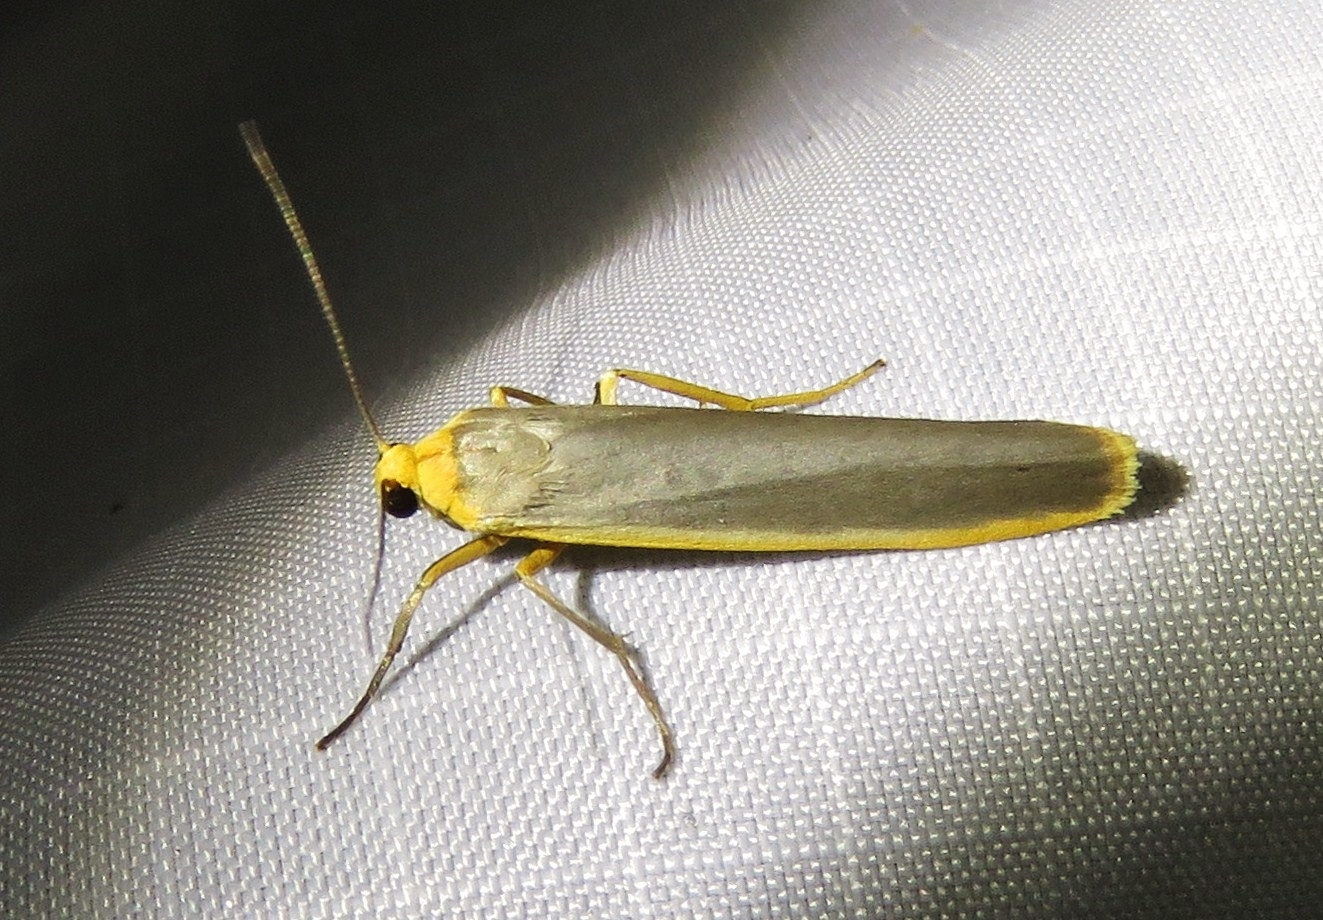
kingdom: Animalia
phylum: Arthropoda
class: Insecta
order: Lepidoptera
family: Erebidae
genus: Manulea
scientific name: Manulea complana
